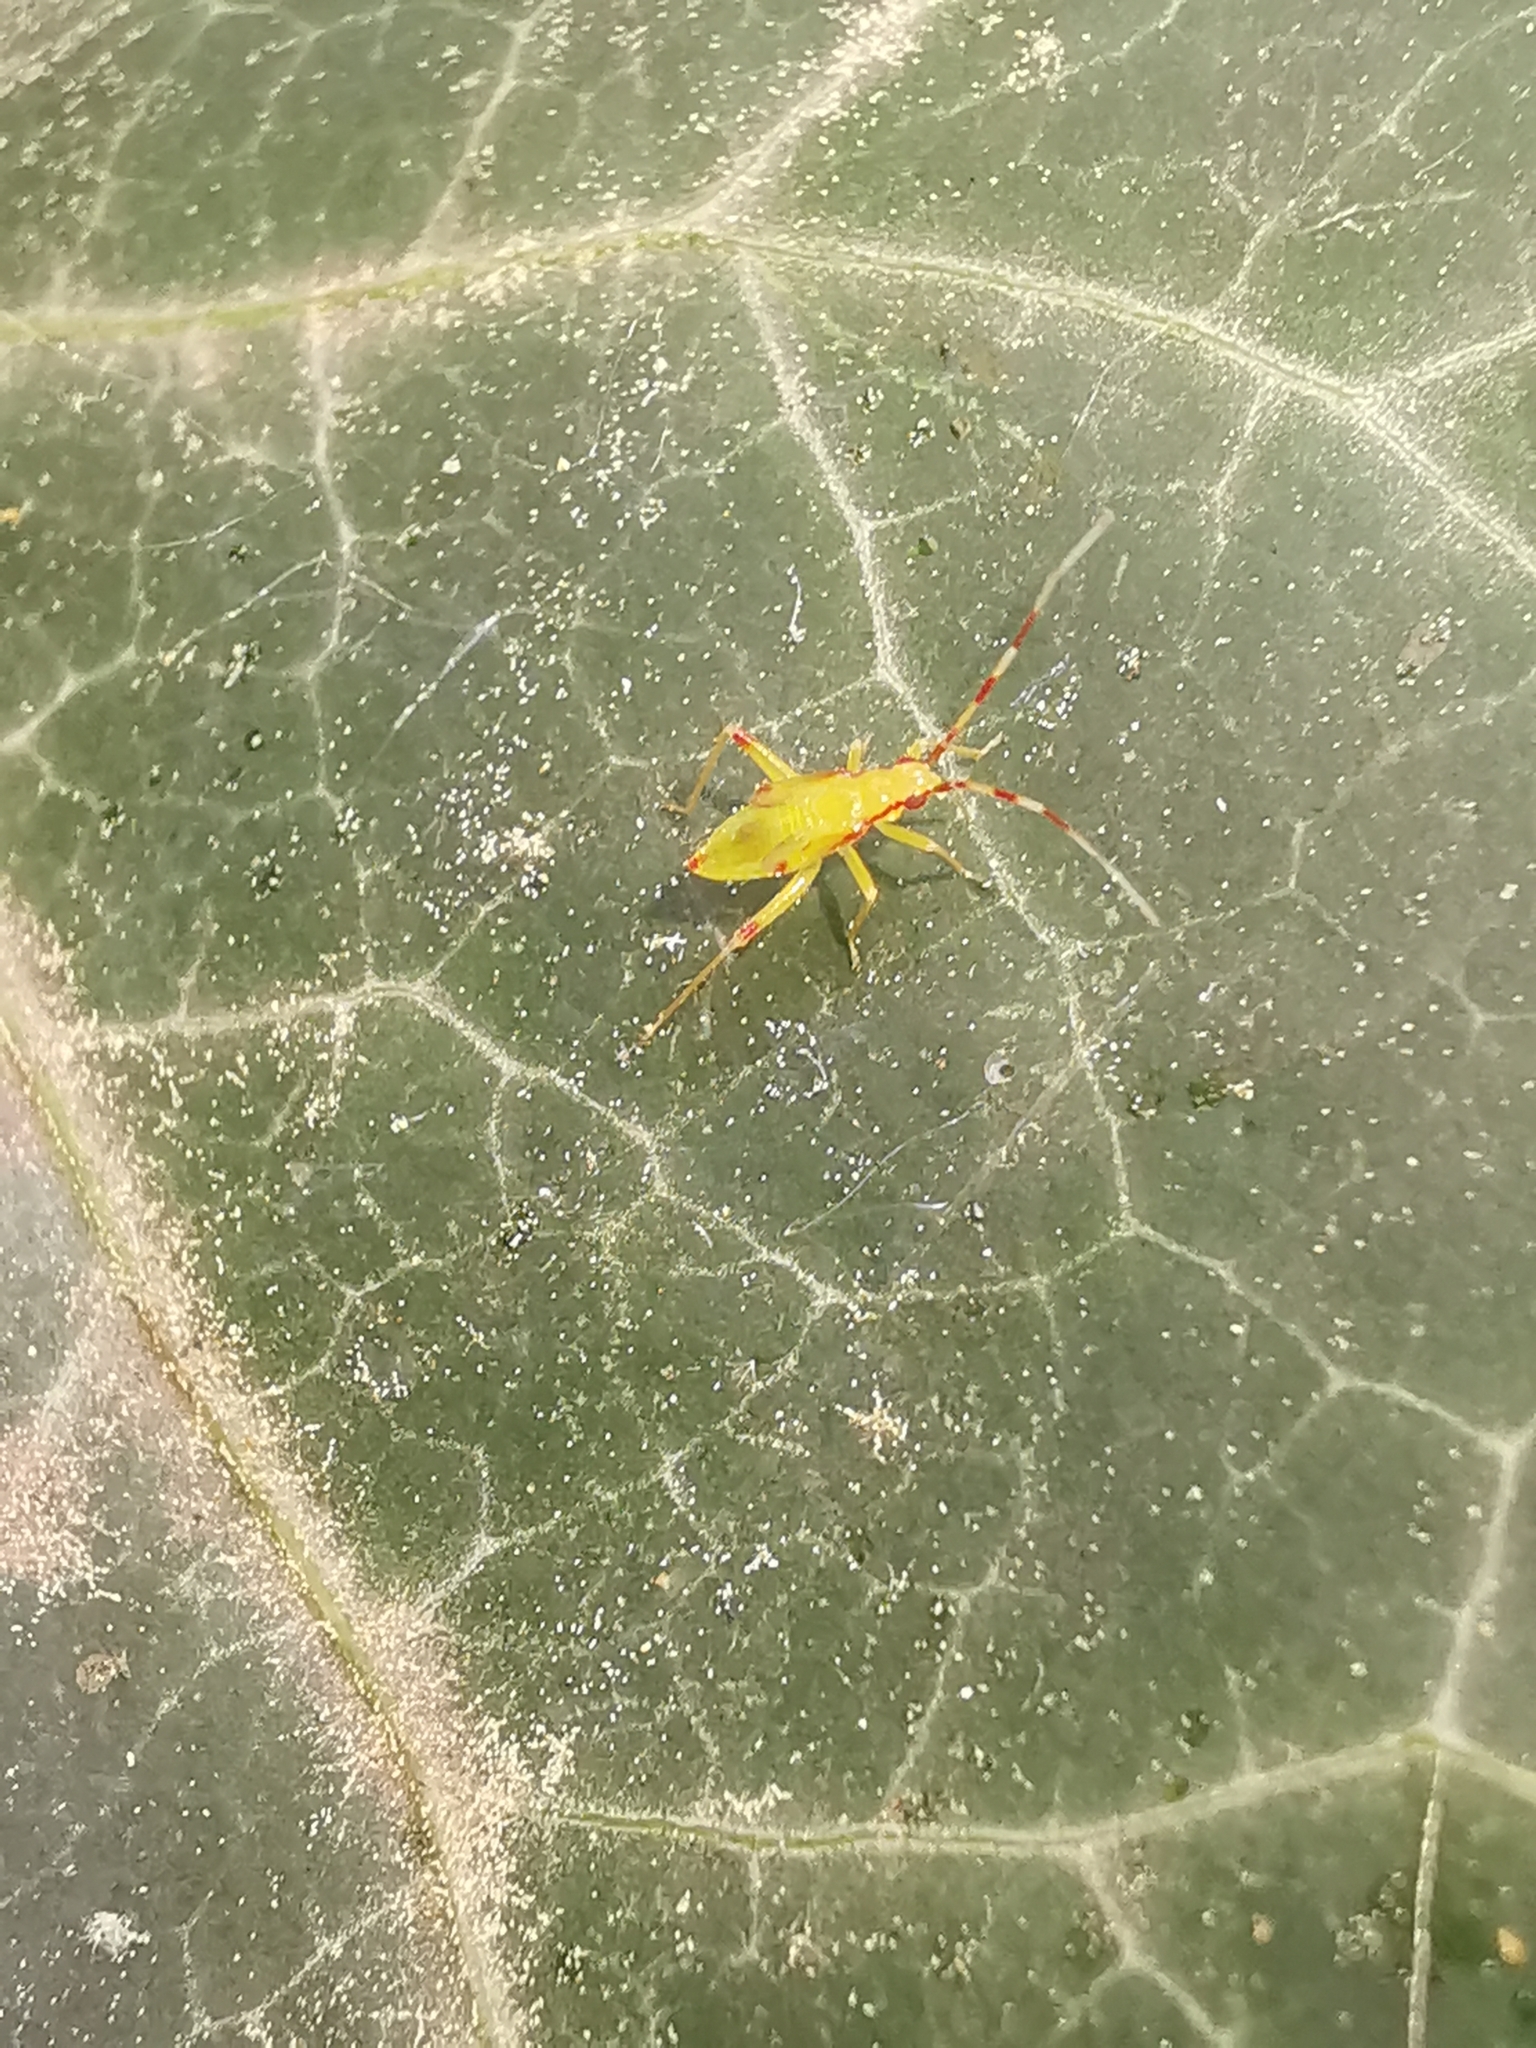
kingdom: Animalia
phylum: Arthropoda
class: Insecta
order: Hemiptera
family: Miridae
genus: Campyloneura
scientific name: Campyloneura virgula
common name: Predatory bug
